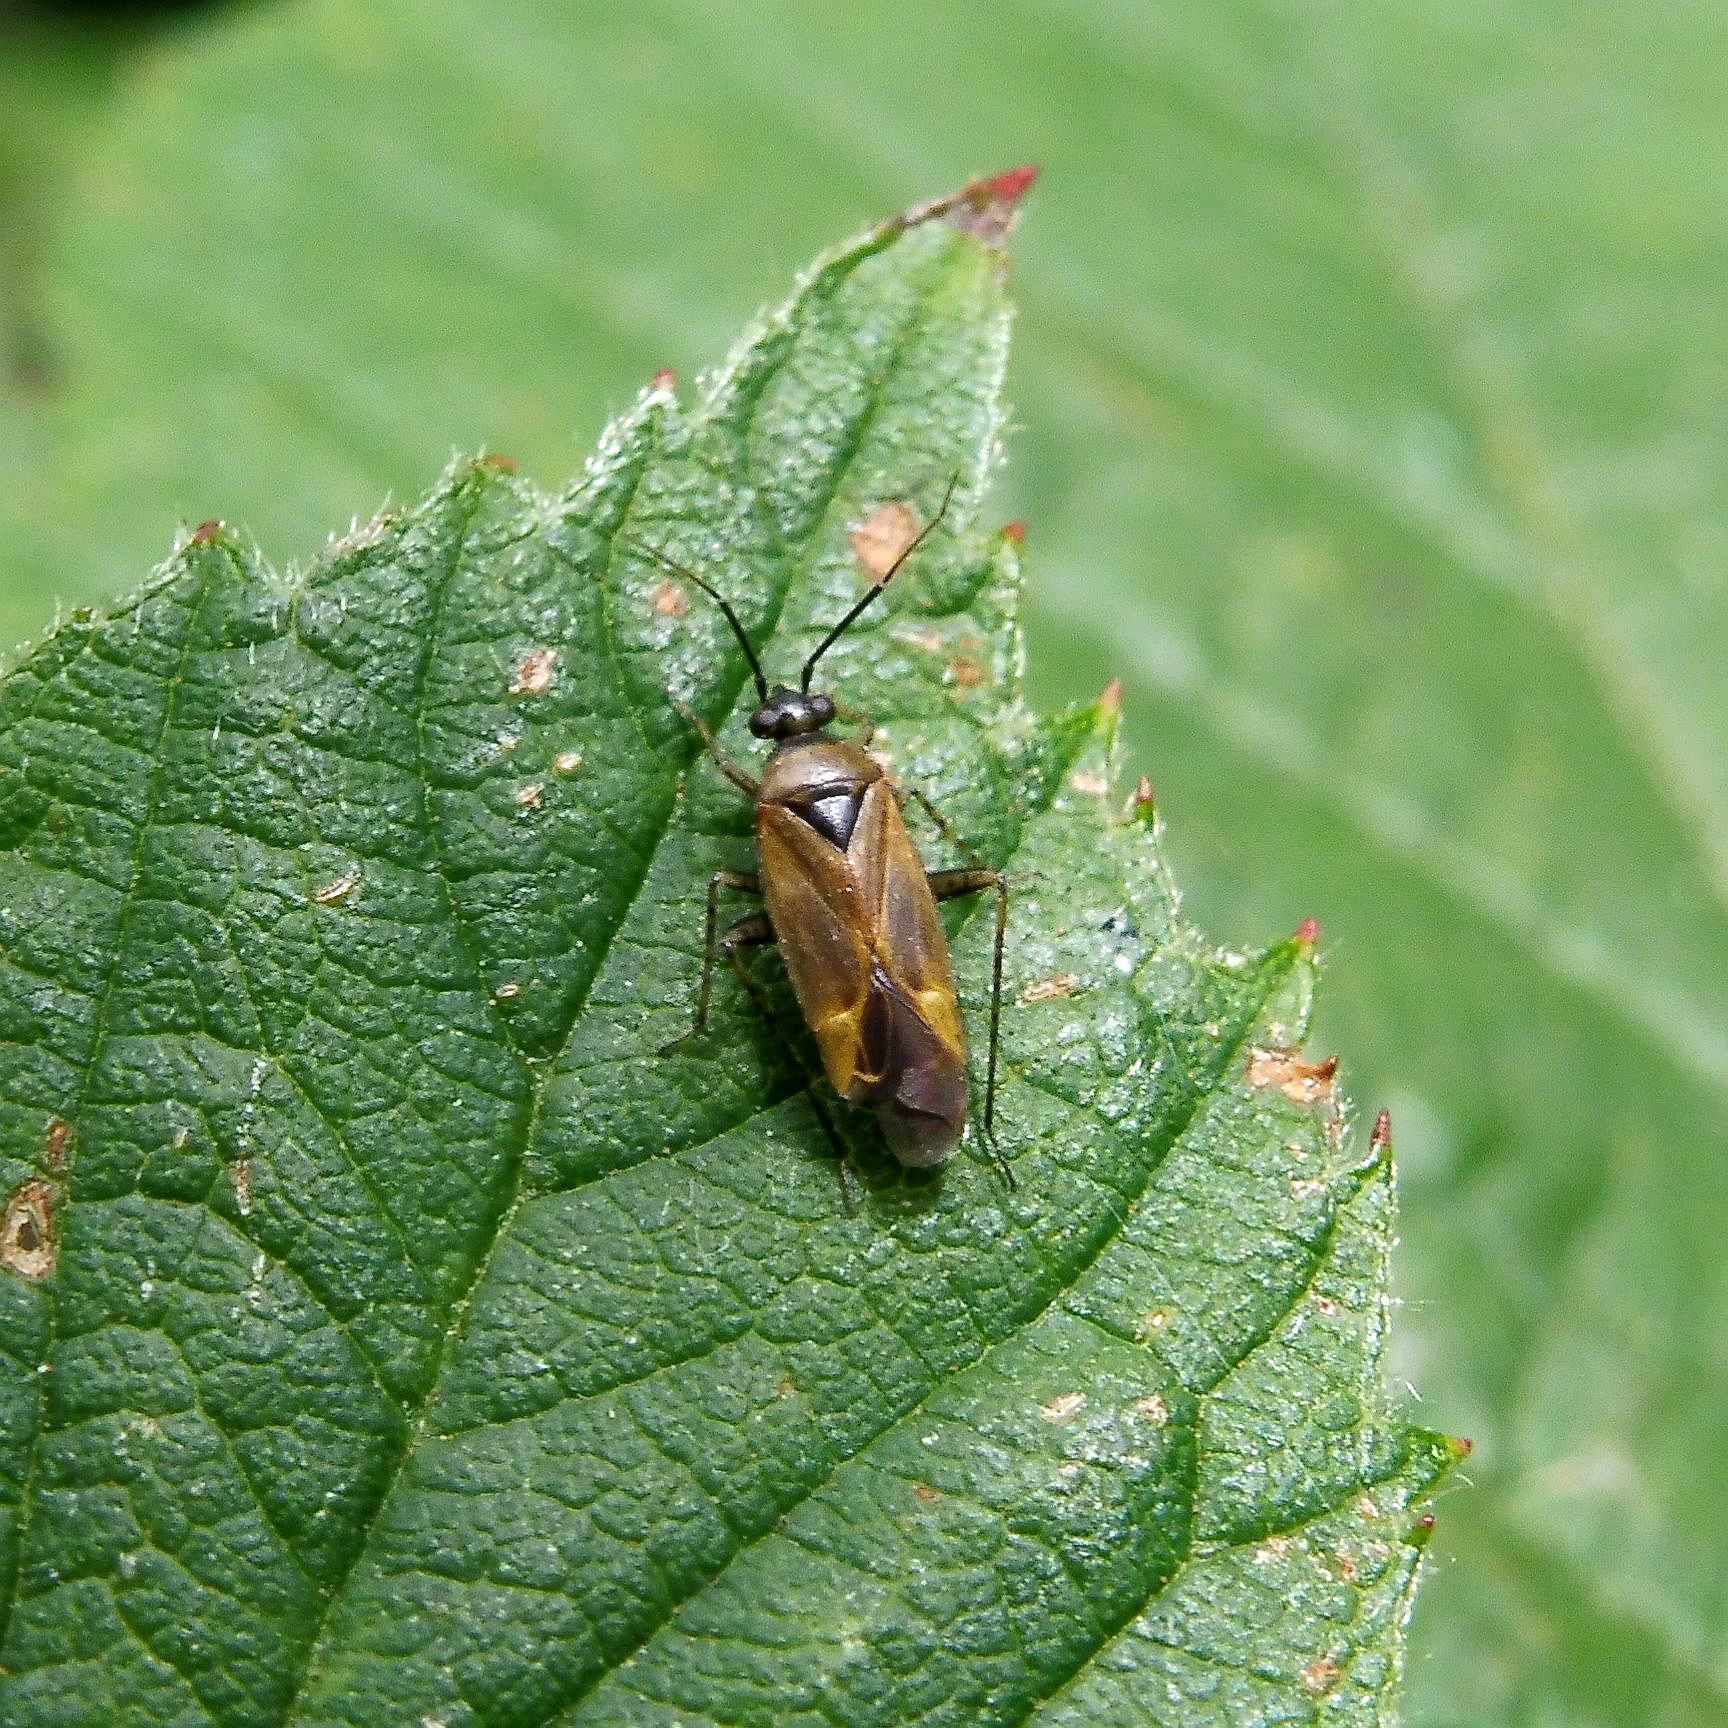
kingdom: Animalia
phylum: Arthropoda
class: Insecta
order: Hemiptera
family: Miridae
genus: Plagiognathus
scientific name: Plagiognathus arbustorum
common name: Plant bug
